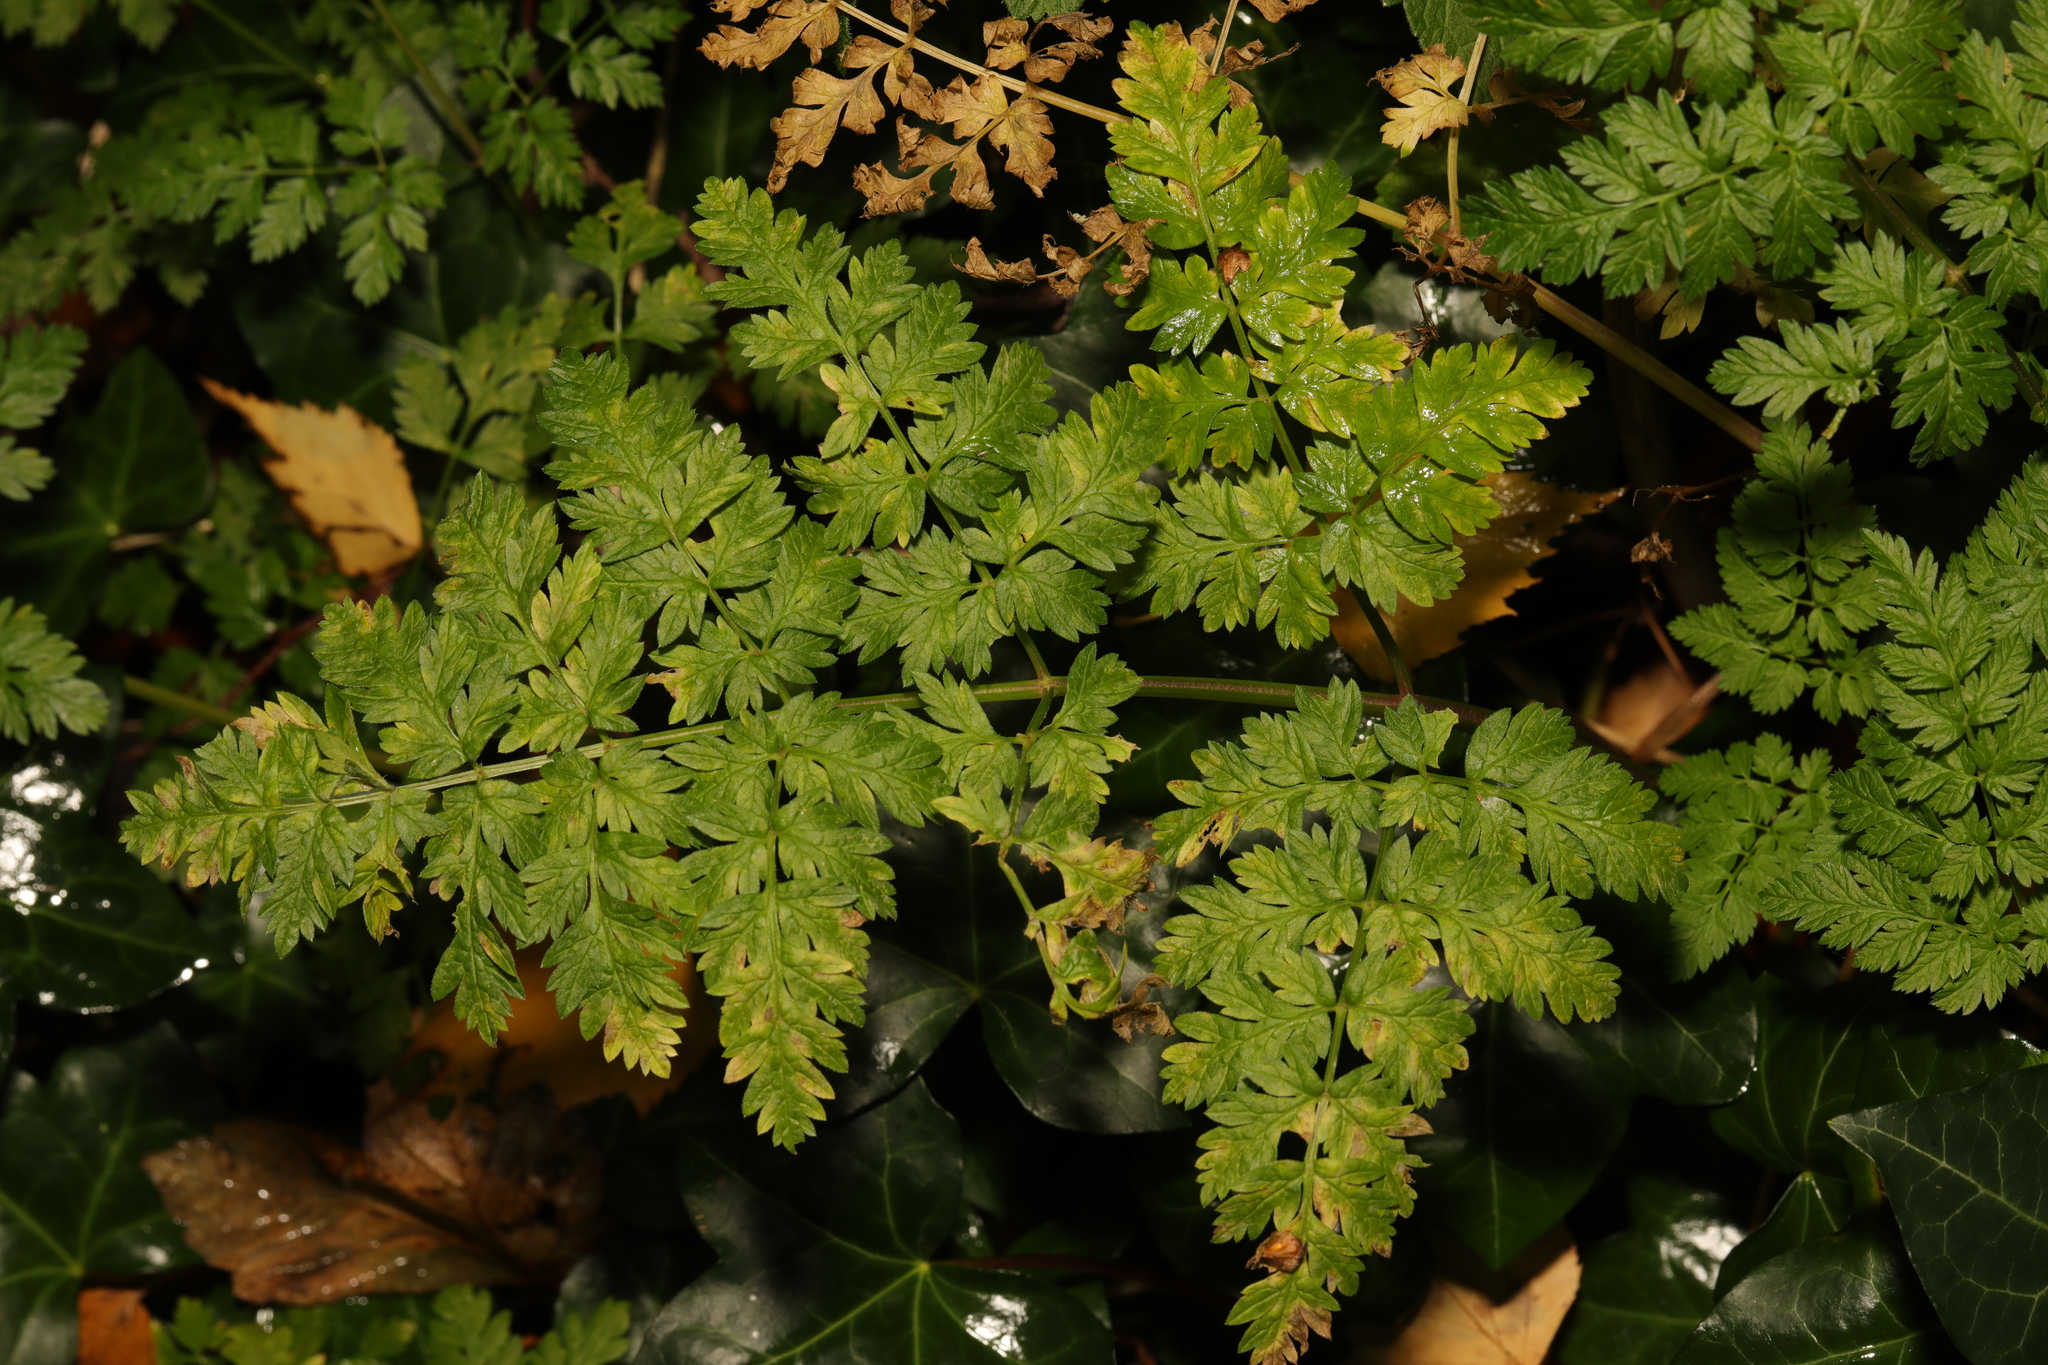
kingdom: Plantae
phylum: Tracheophyta
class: Magnoliopsida
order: Apiales
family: Apiaceae
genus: Anthriscus
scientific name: Anthriscus sylvestris
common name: Cow parsley
